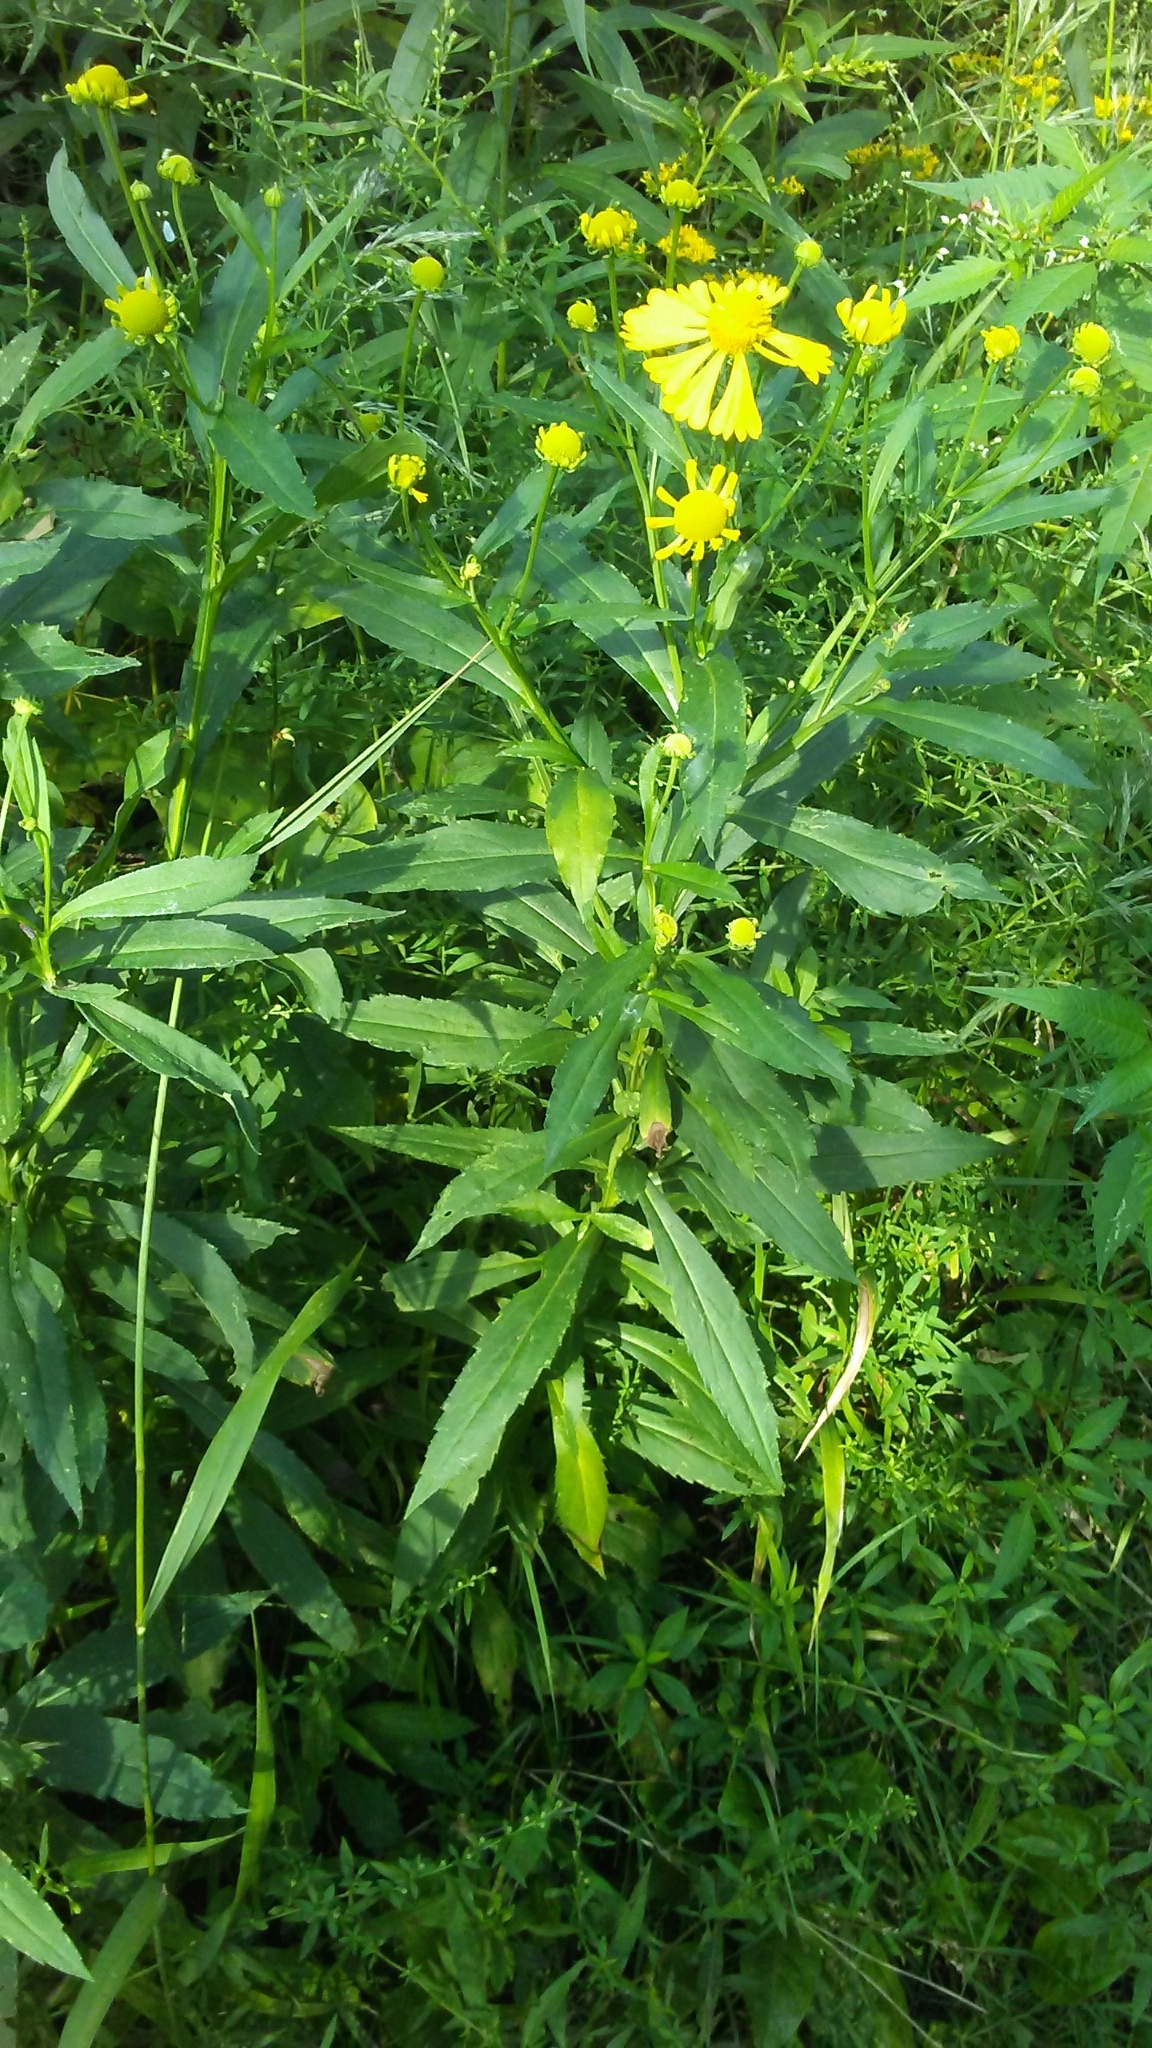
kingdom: Plantae
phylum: Tracheophyta
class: Magnoliopsida
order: Asterales
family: Asteraceae
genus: Helenium
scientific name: Helenium autumnale
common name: Sneezeweed
